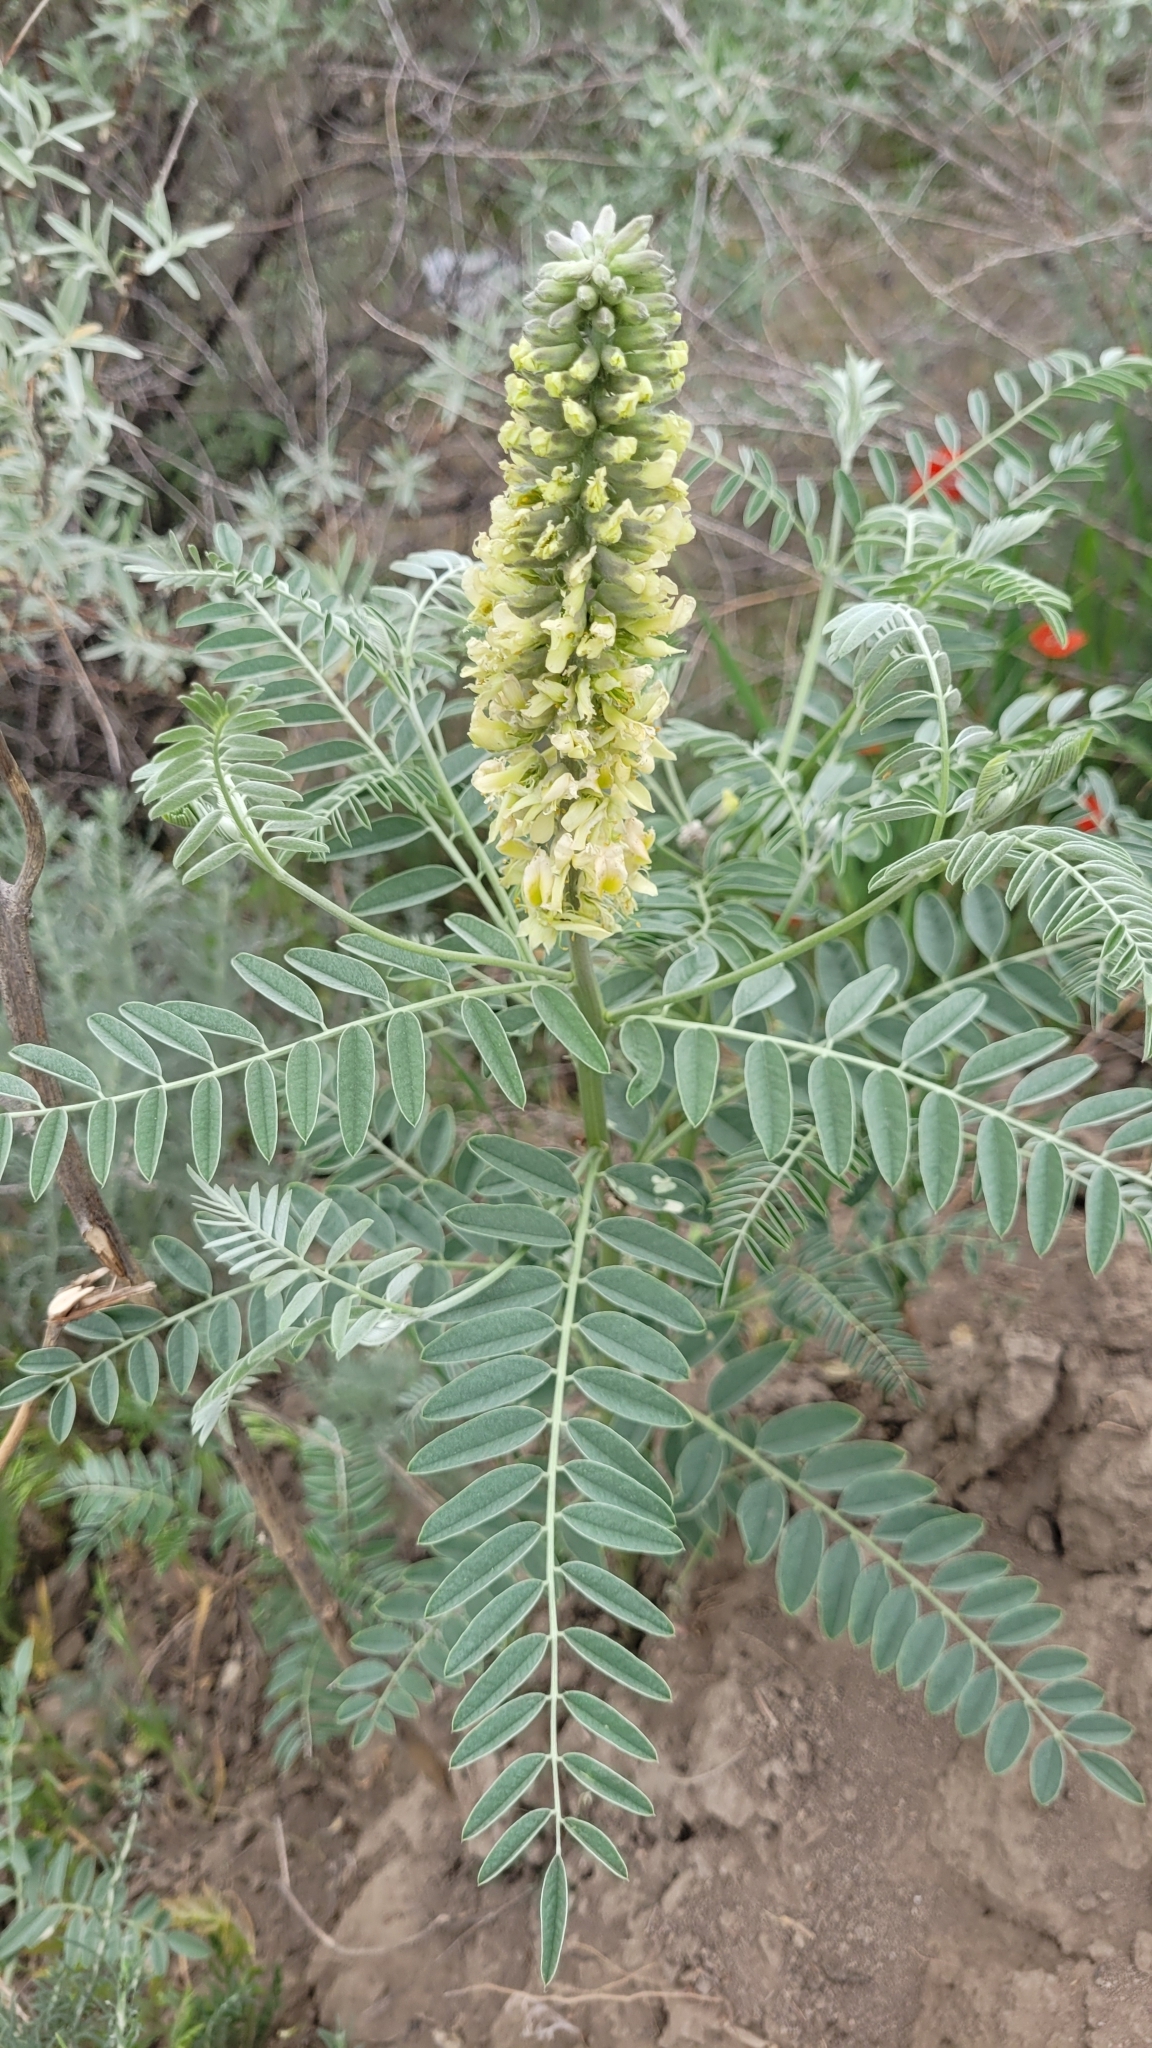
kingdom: Plantae
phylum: Tracheophyta
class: Magnoliopsida
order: Fabales
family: Fabaceae
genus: Sophora
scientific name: Sophora alopecuroides
